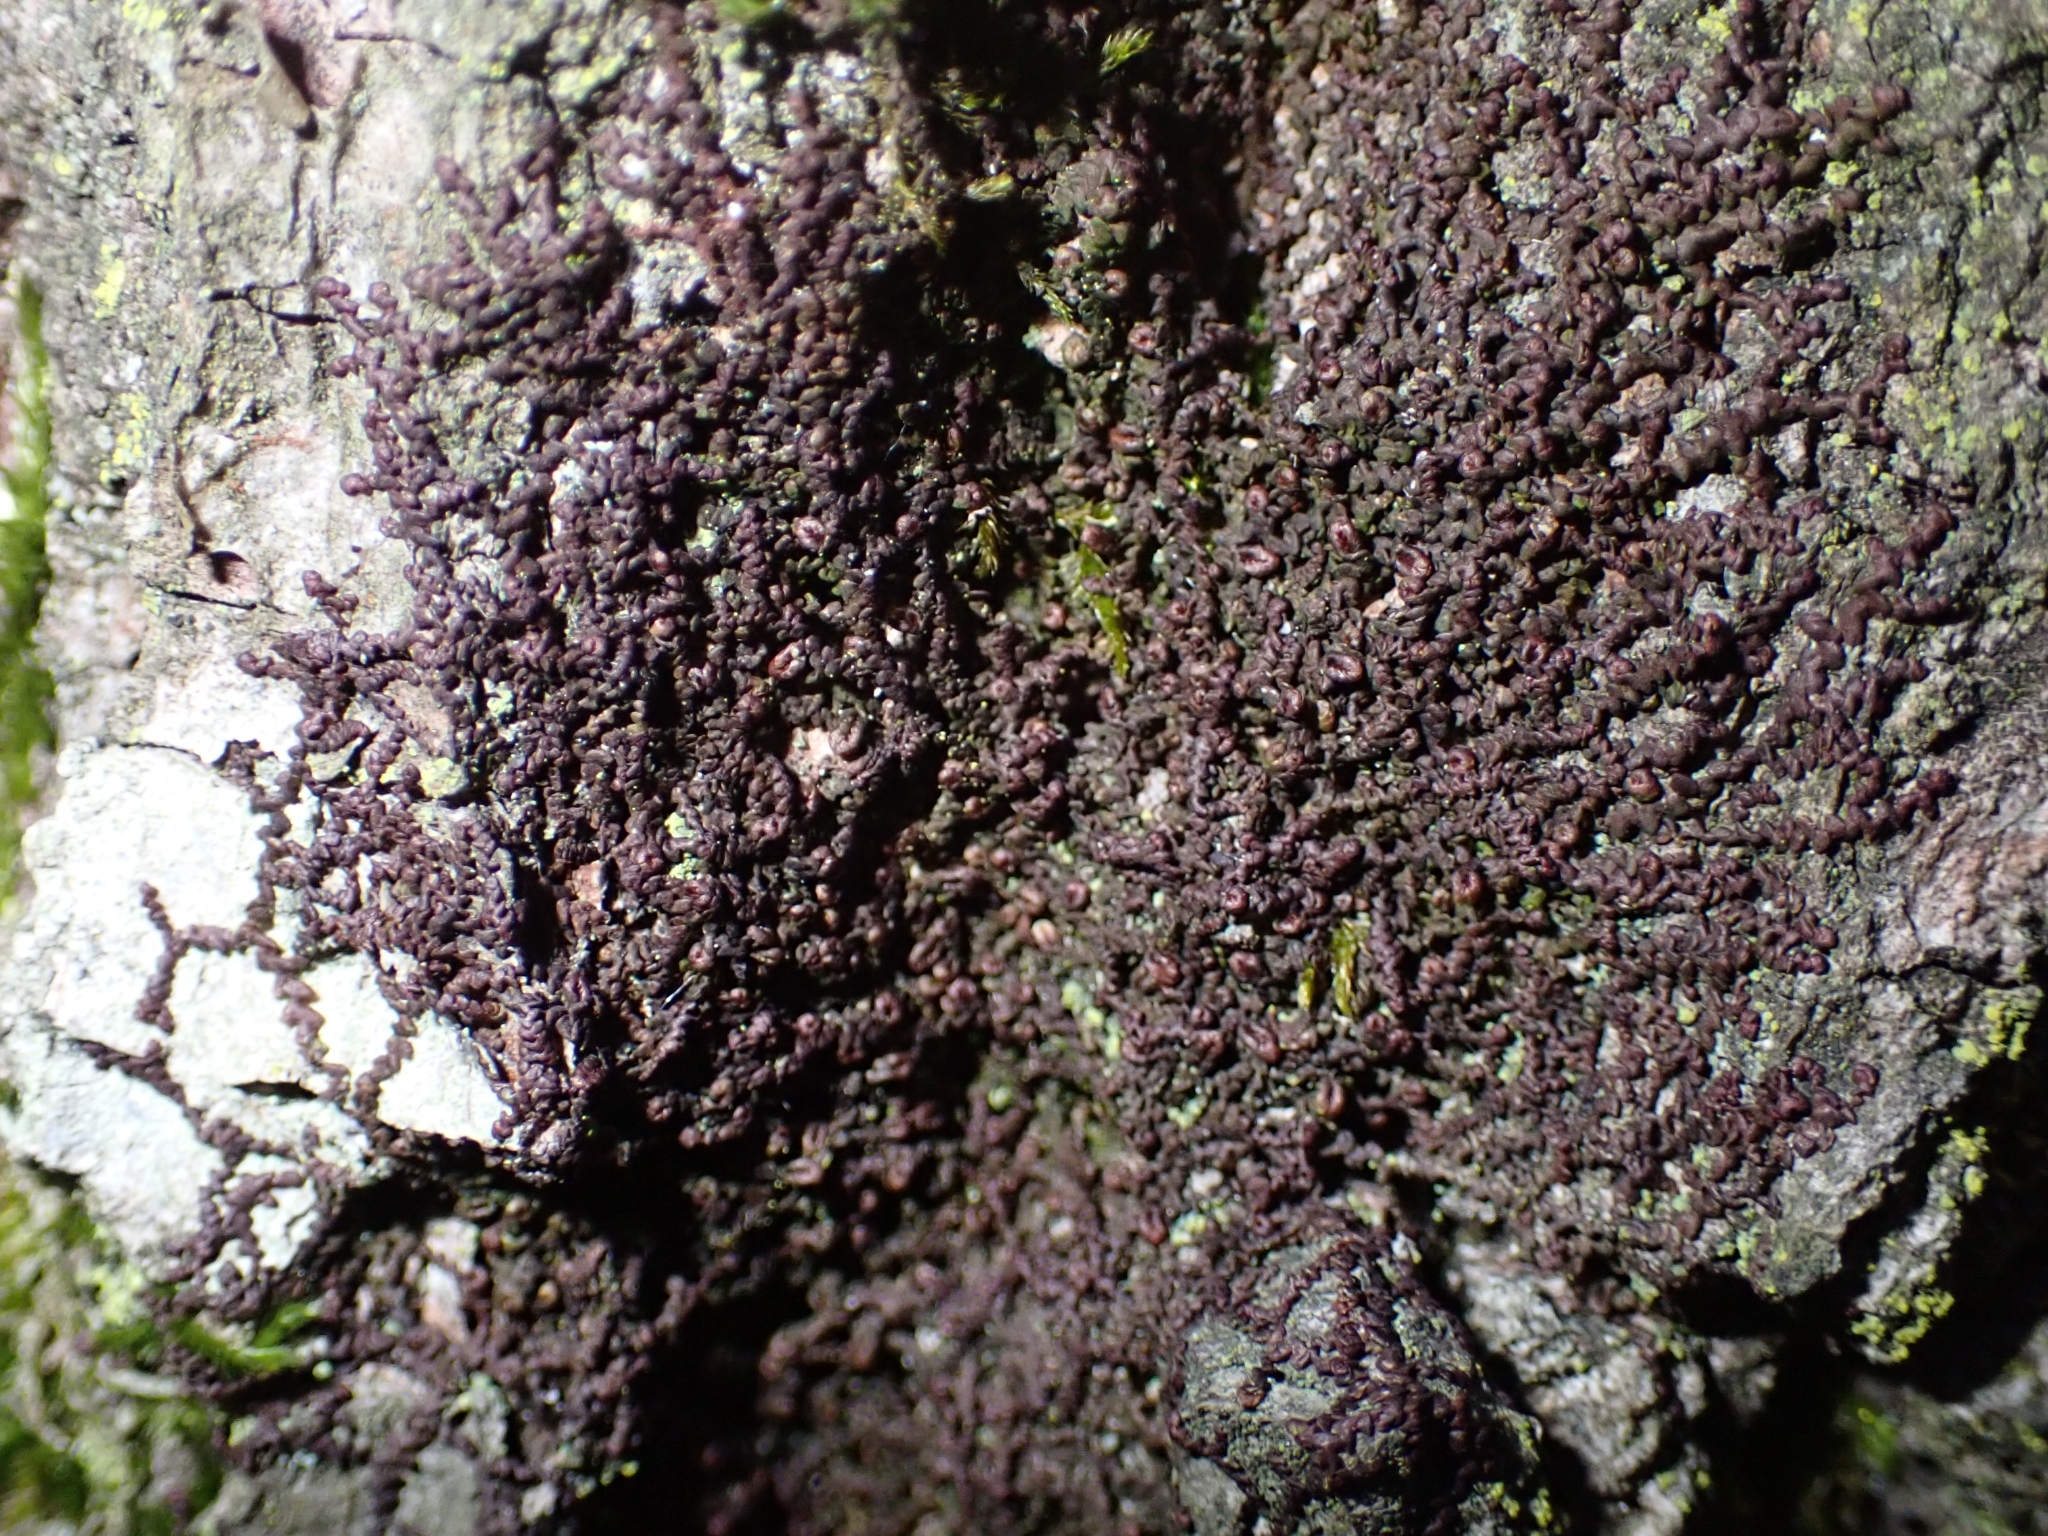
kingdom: Plantae
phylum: Marchantiophyta
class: Jungermanniopsida
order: Porellales
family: Frullaniaceae
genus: Frullania
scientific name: Frullania dilatata
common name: Dilated scalewort
